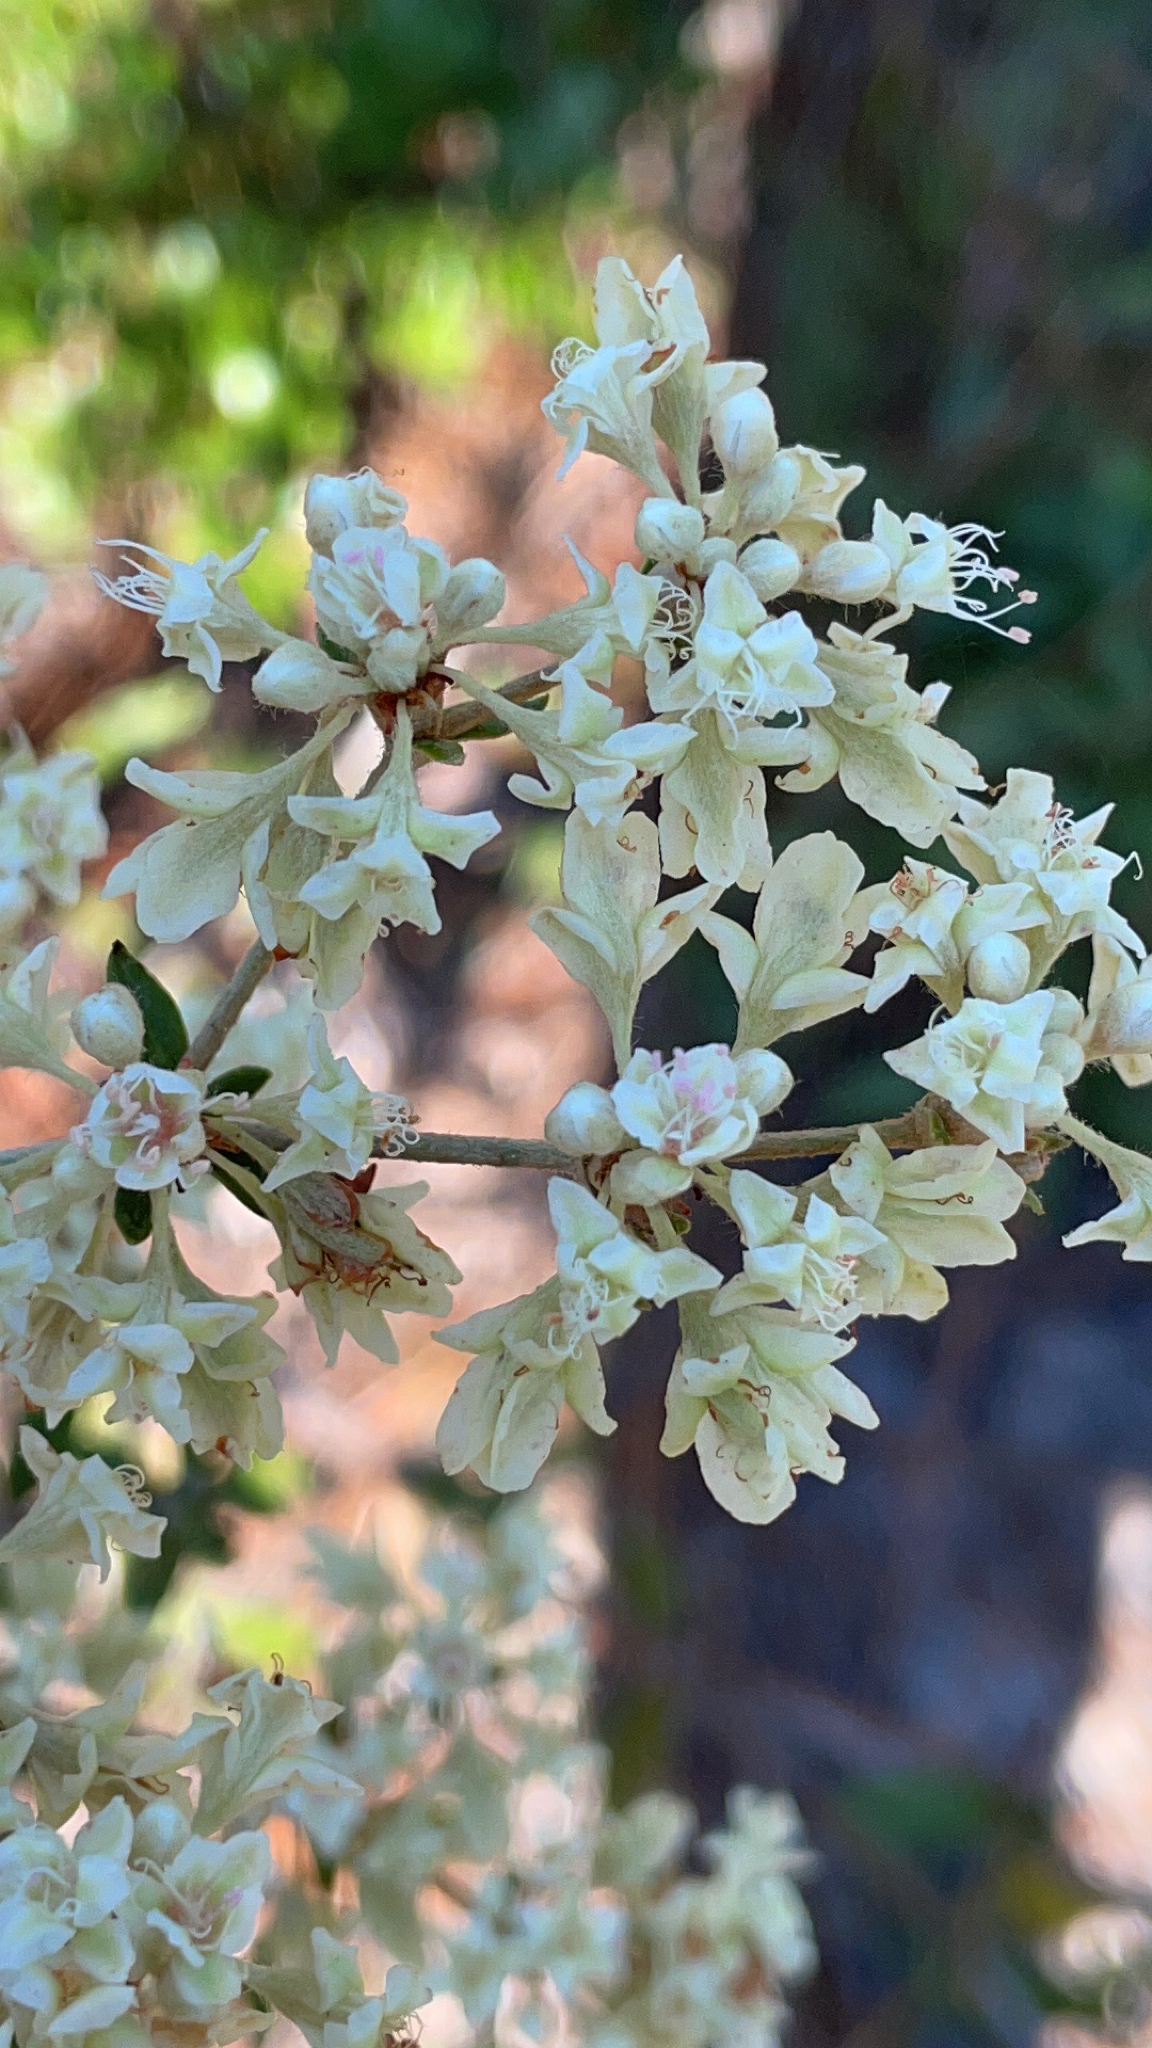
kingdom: Plantae
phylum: Tracheophyta
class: Magnoliopsida
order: Caryophyllales
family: Polygonaceae
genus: Eriogonum
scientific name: Eriogonum tomentosum
